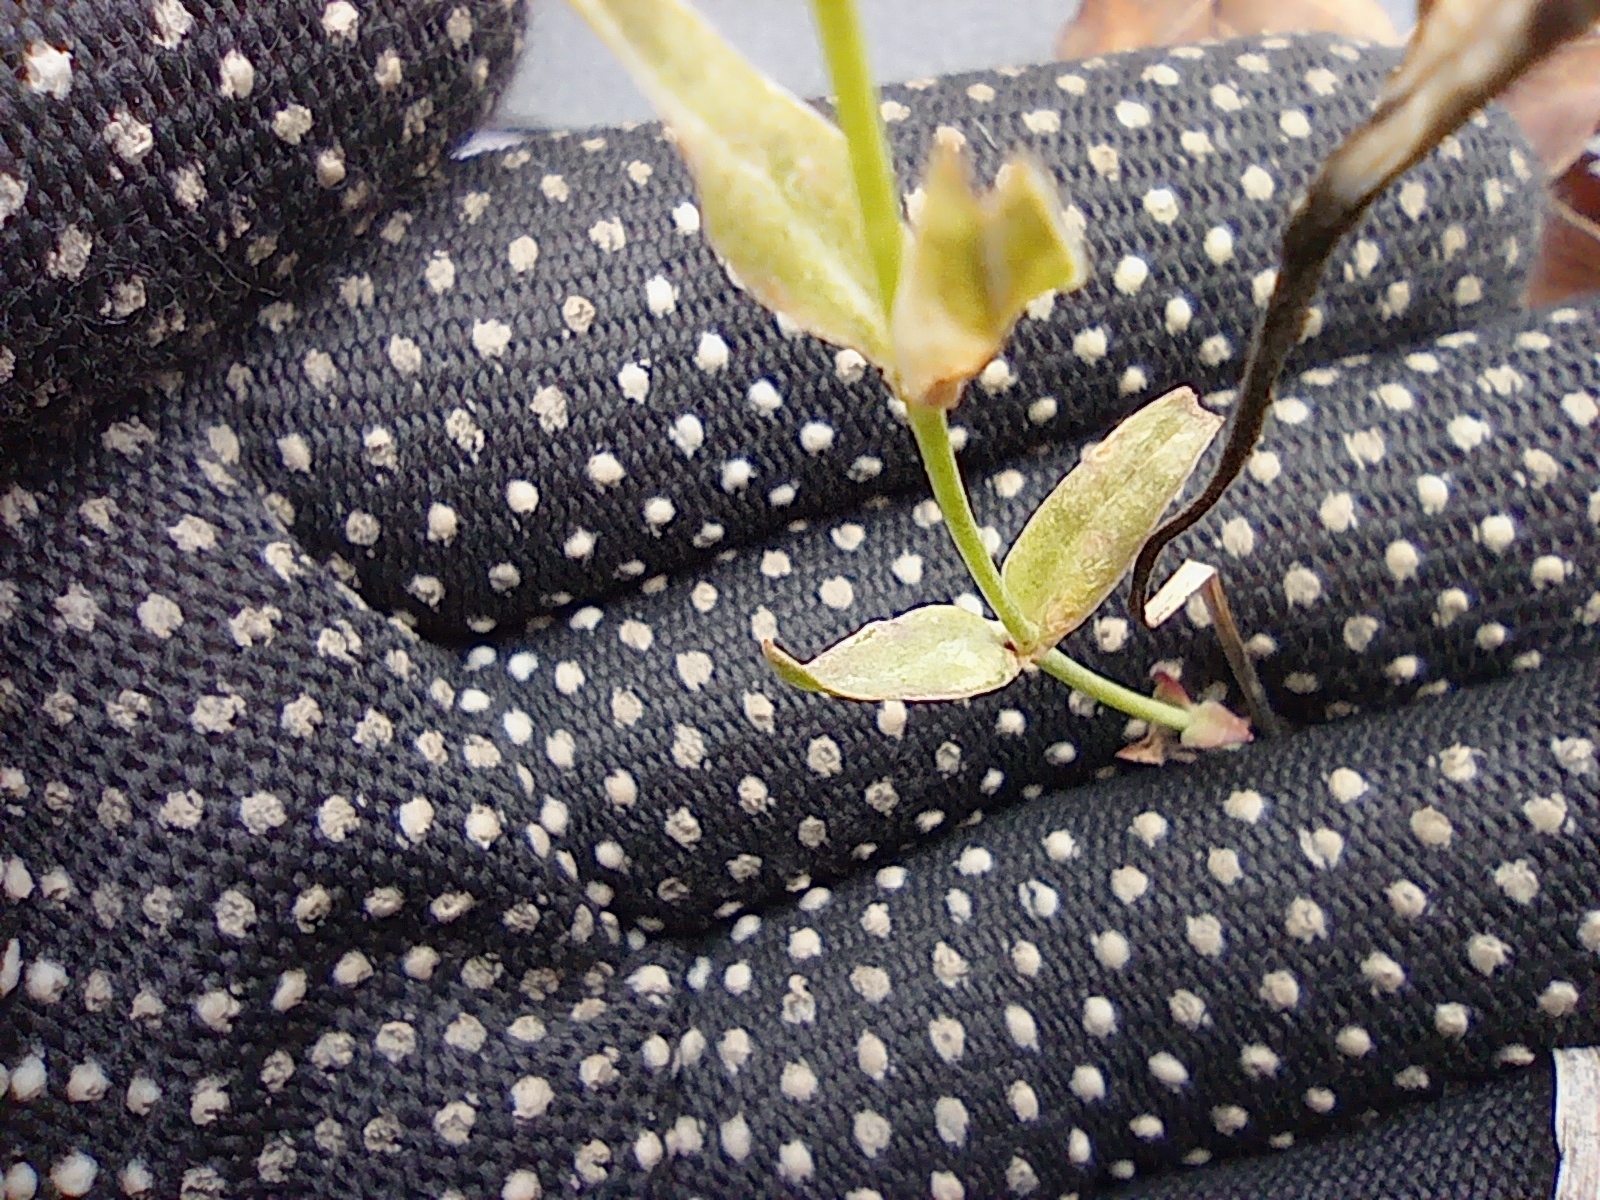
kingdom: Plantae
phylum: Tracheophyta
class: Magnoliopsida
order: Caryophyllales
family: Caryophyllaceae
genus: Silene
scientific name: Silene vulgaris
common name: Bladder campion
